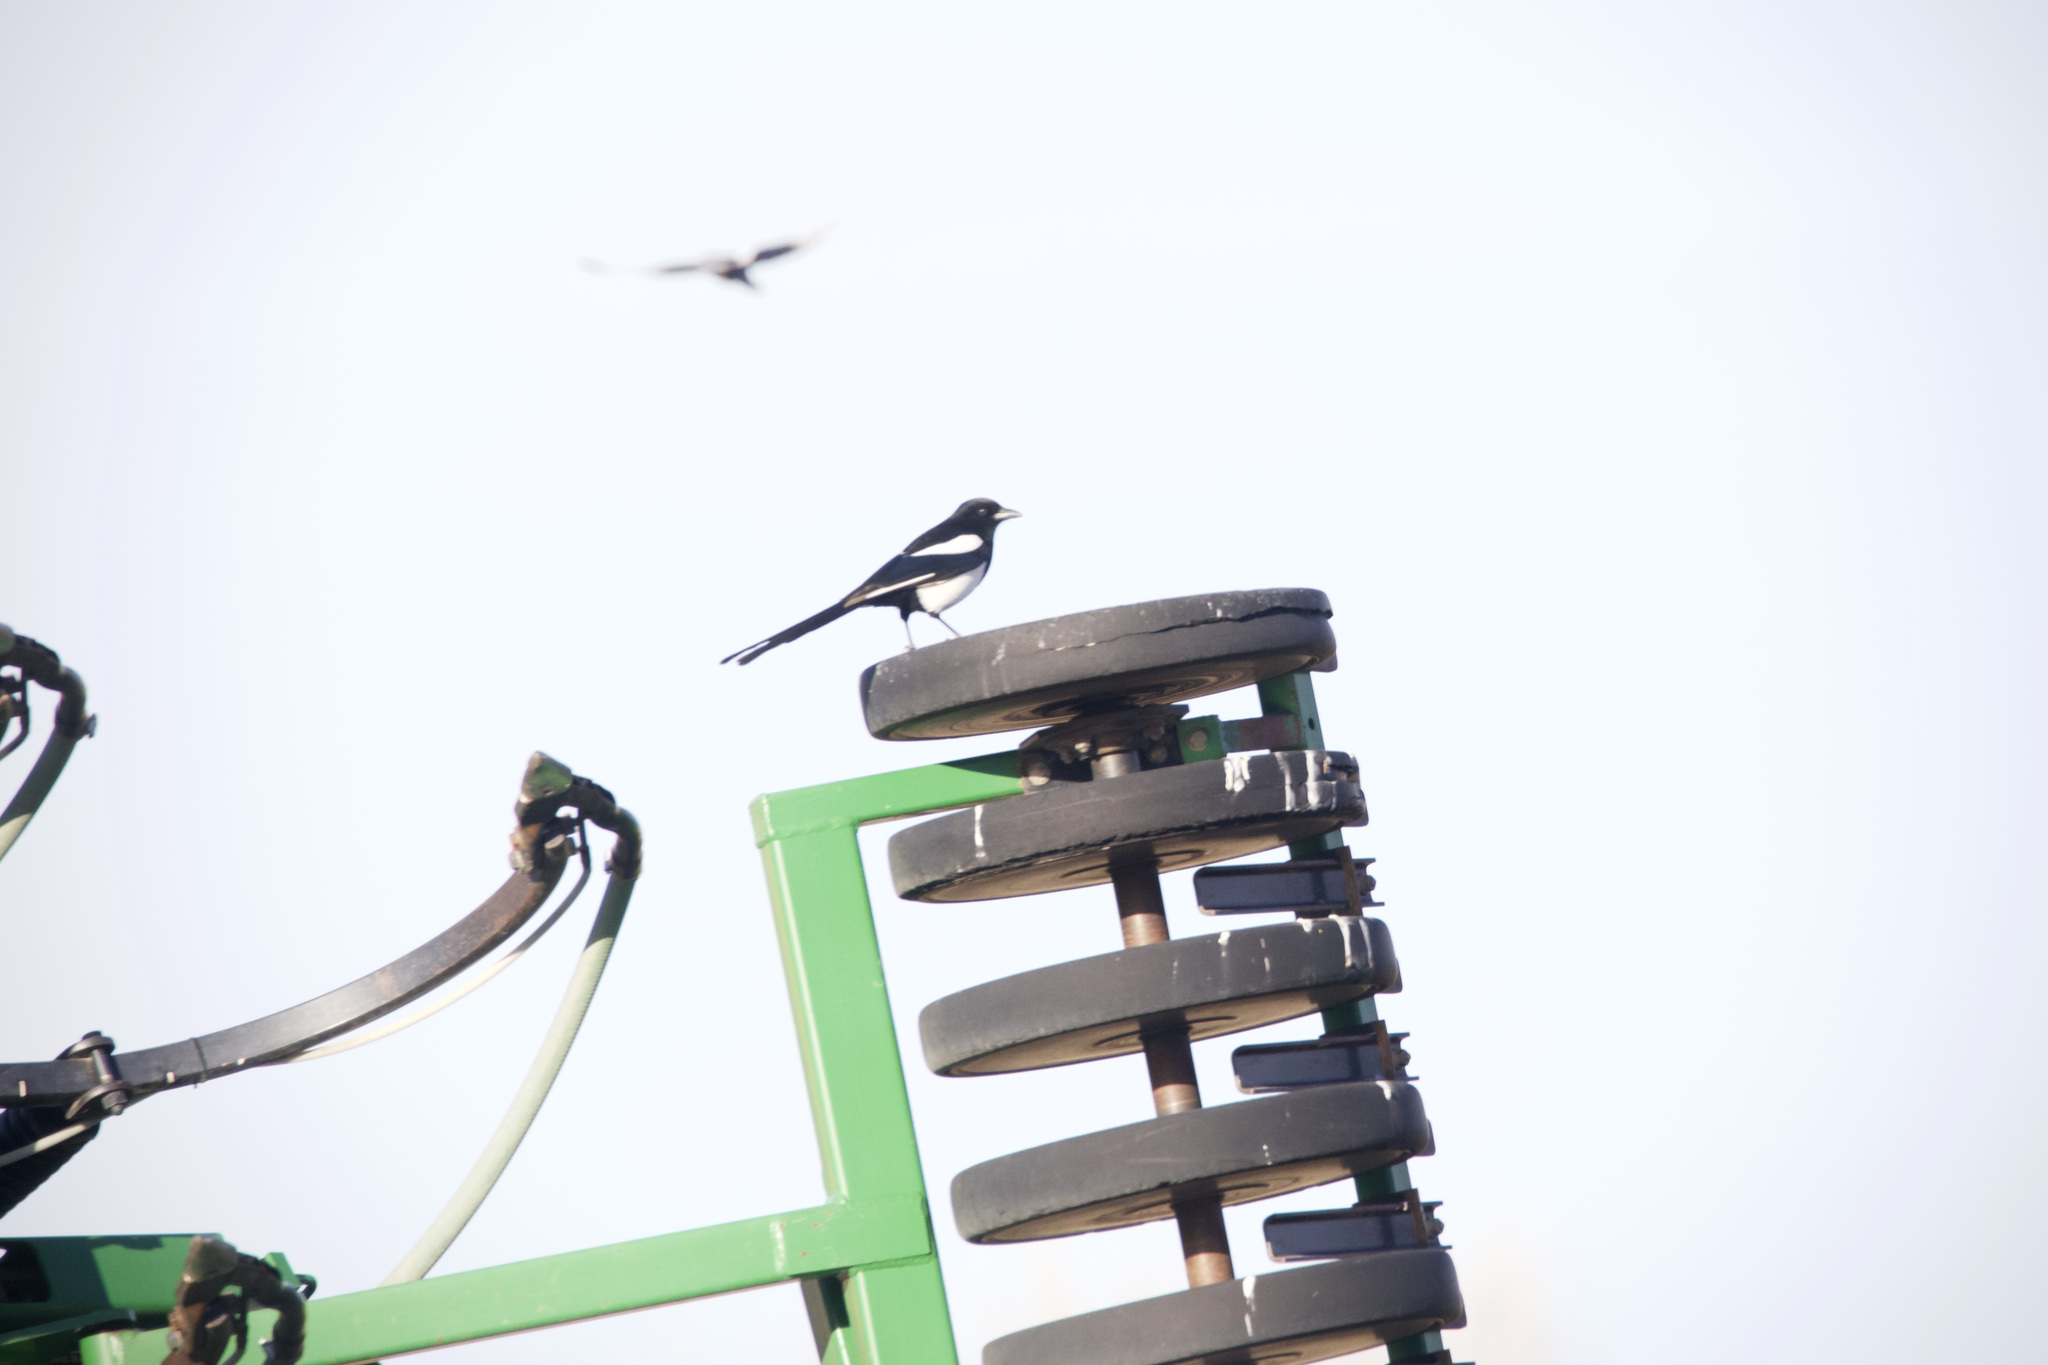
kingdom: Animalia
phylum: Chordata
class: Aves
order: Passeriformes
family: Corvidae
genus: Pica
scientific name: Pica hudsonia
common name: Black-billed magpie
